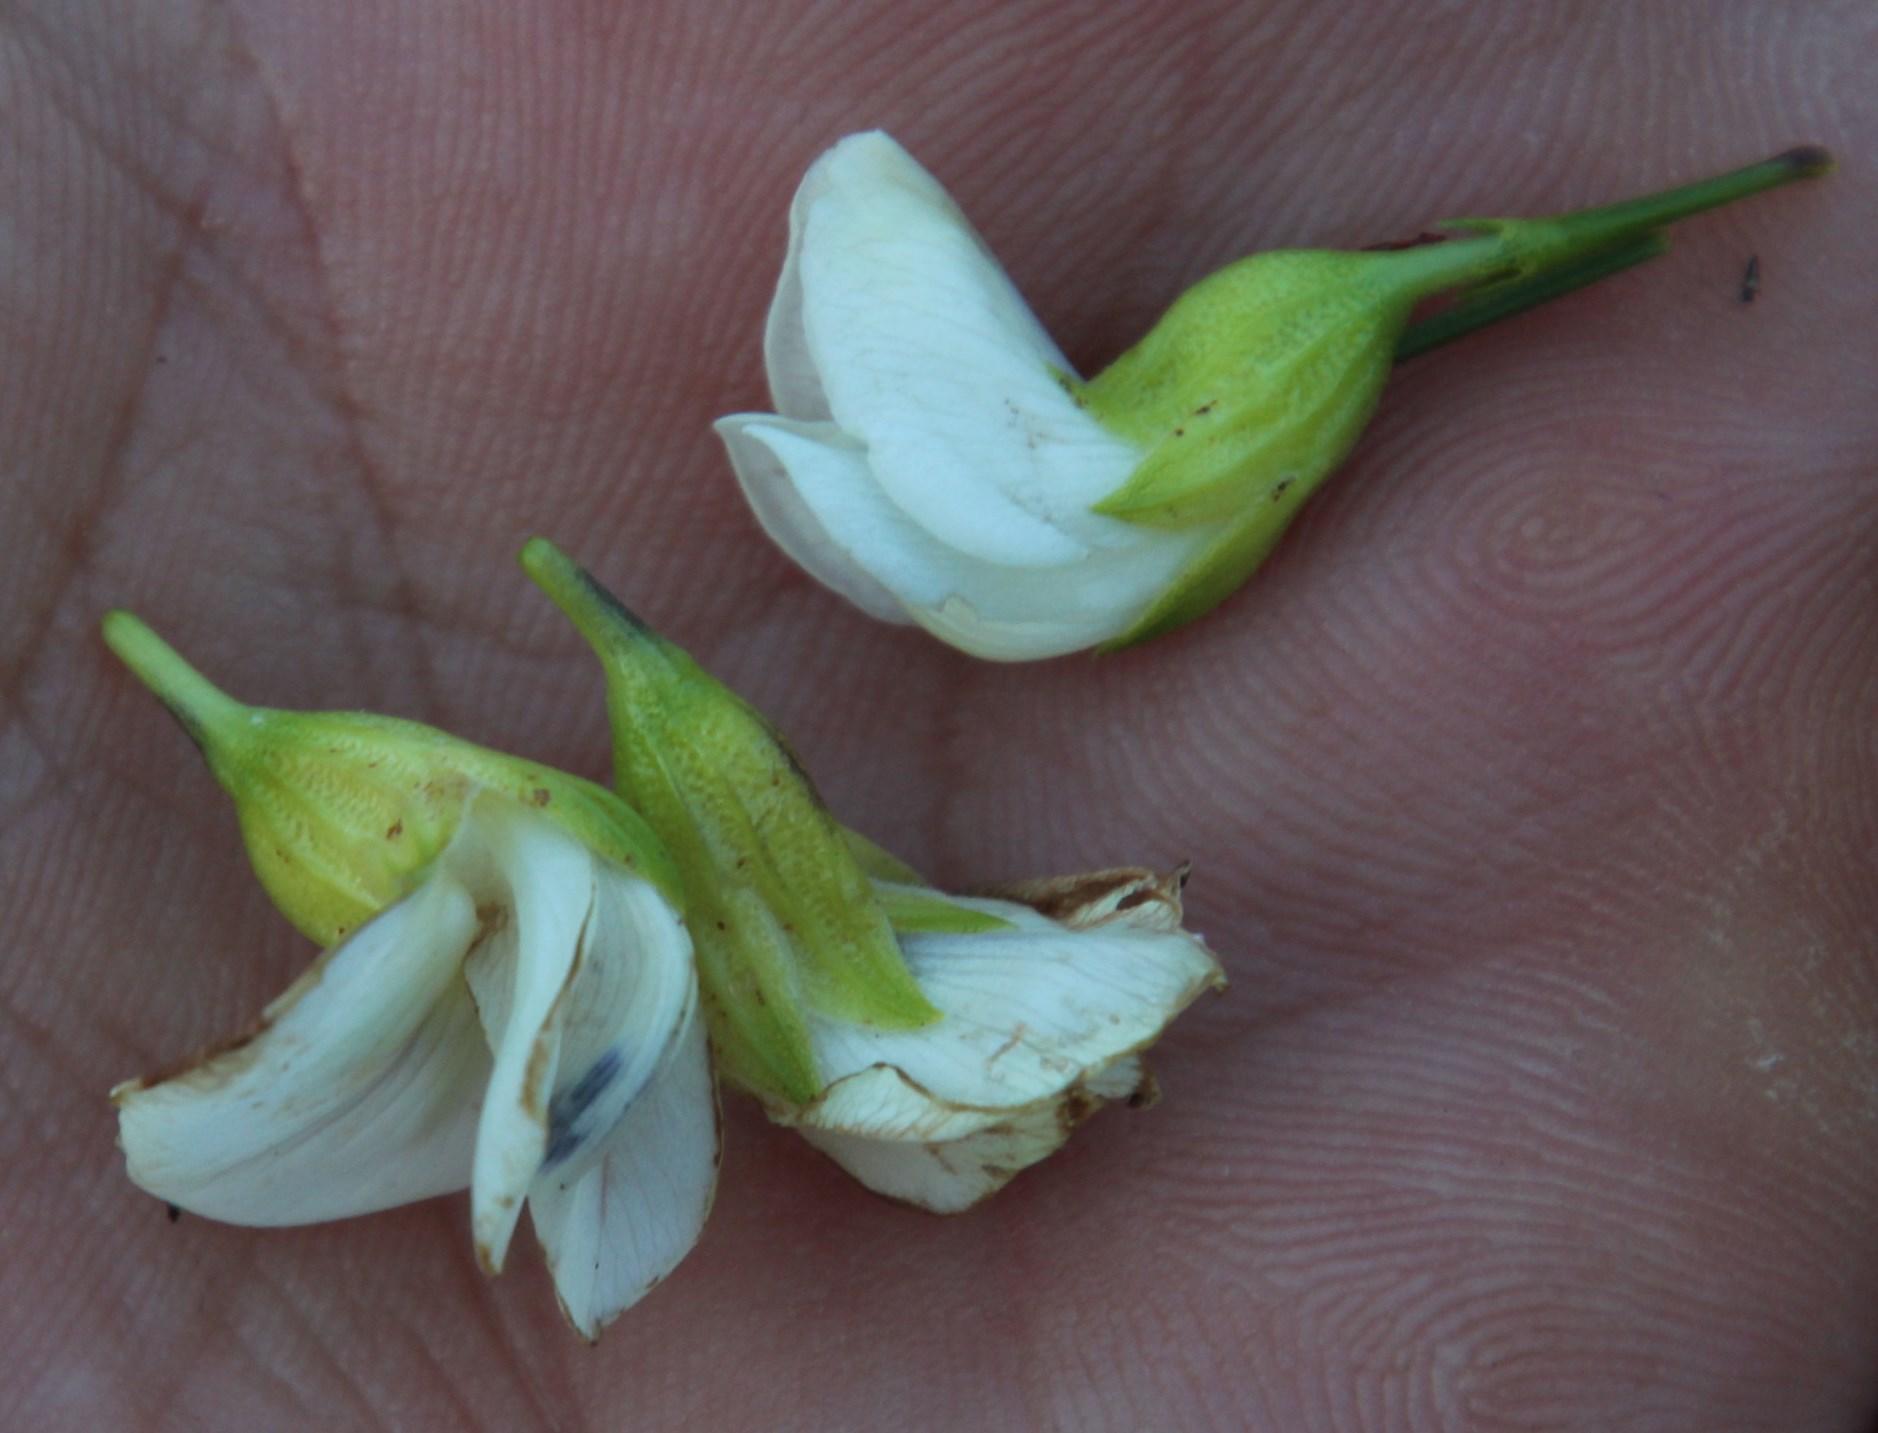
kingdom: Plantae
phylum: Tracheophyta
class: Magnoliopsida
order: Fabales
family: Fabaceae
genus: Psoralea
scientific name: Psoralea
